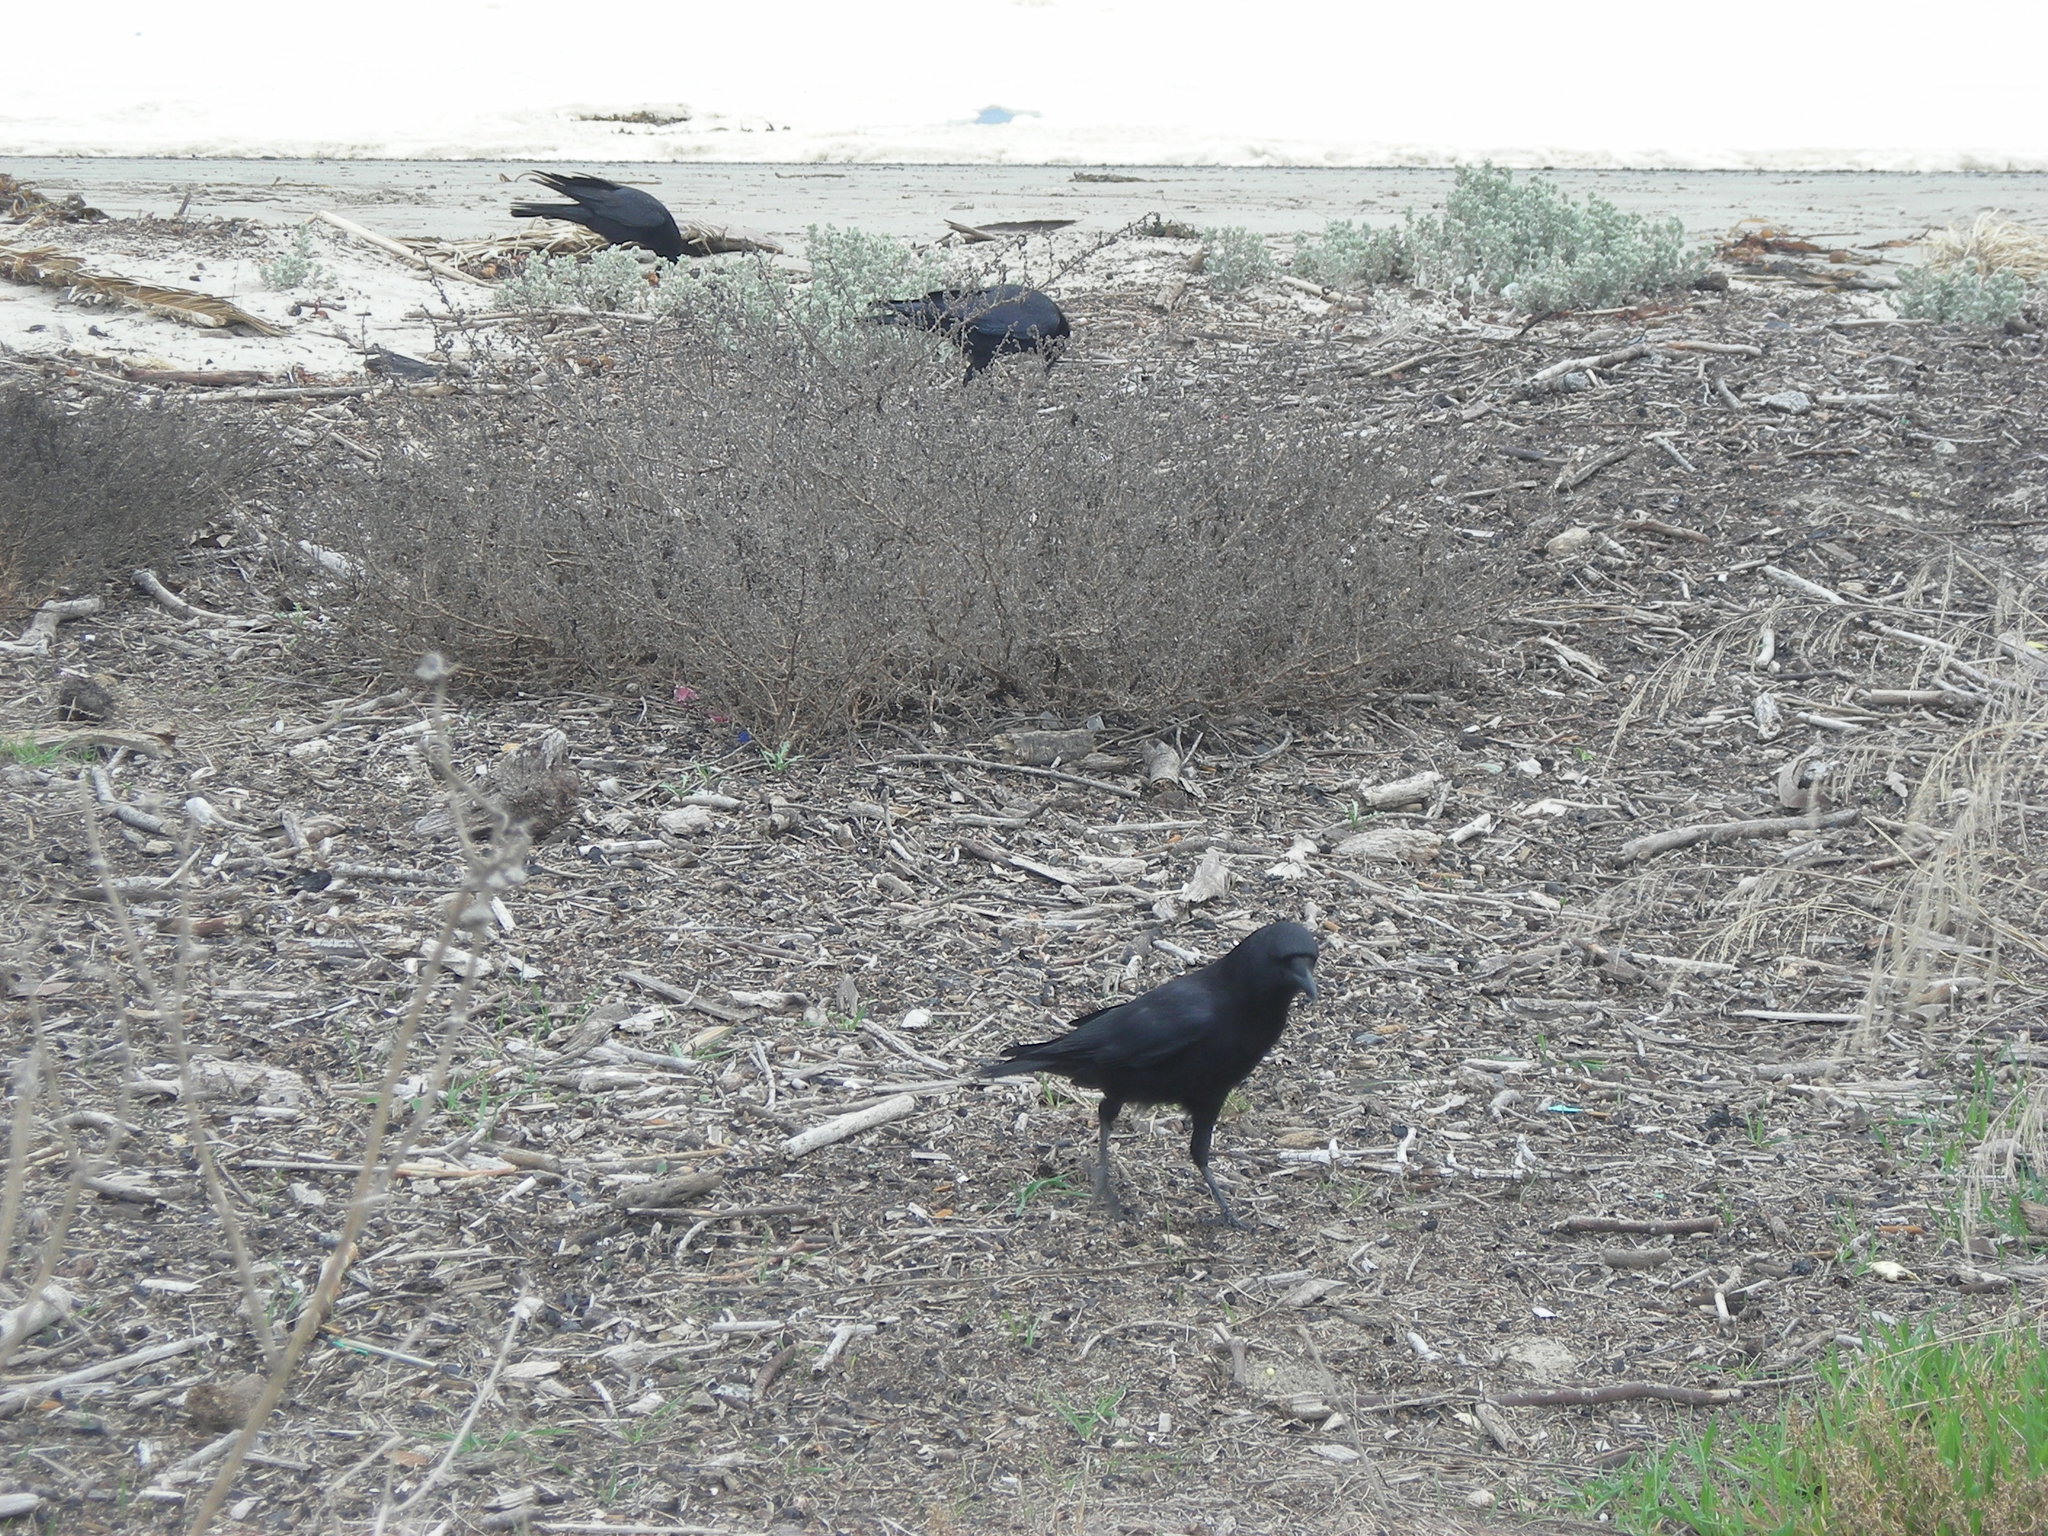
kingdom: Animalia
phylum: Chordata
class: Aves
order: Passeriformes
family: Corvidae
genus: Corvus
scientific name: Corvus brachyrhynchos
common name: American crow
